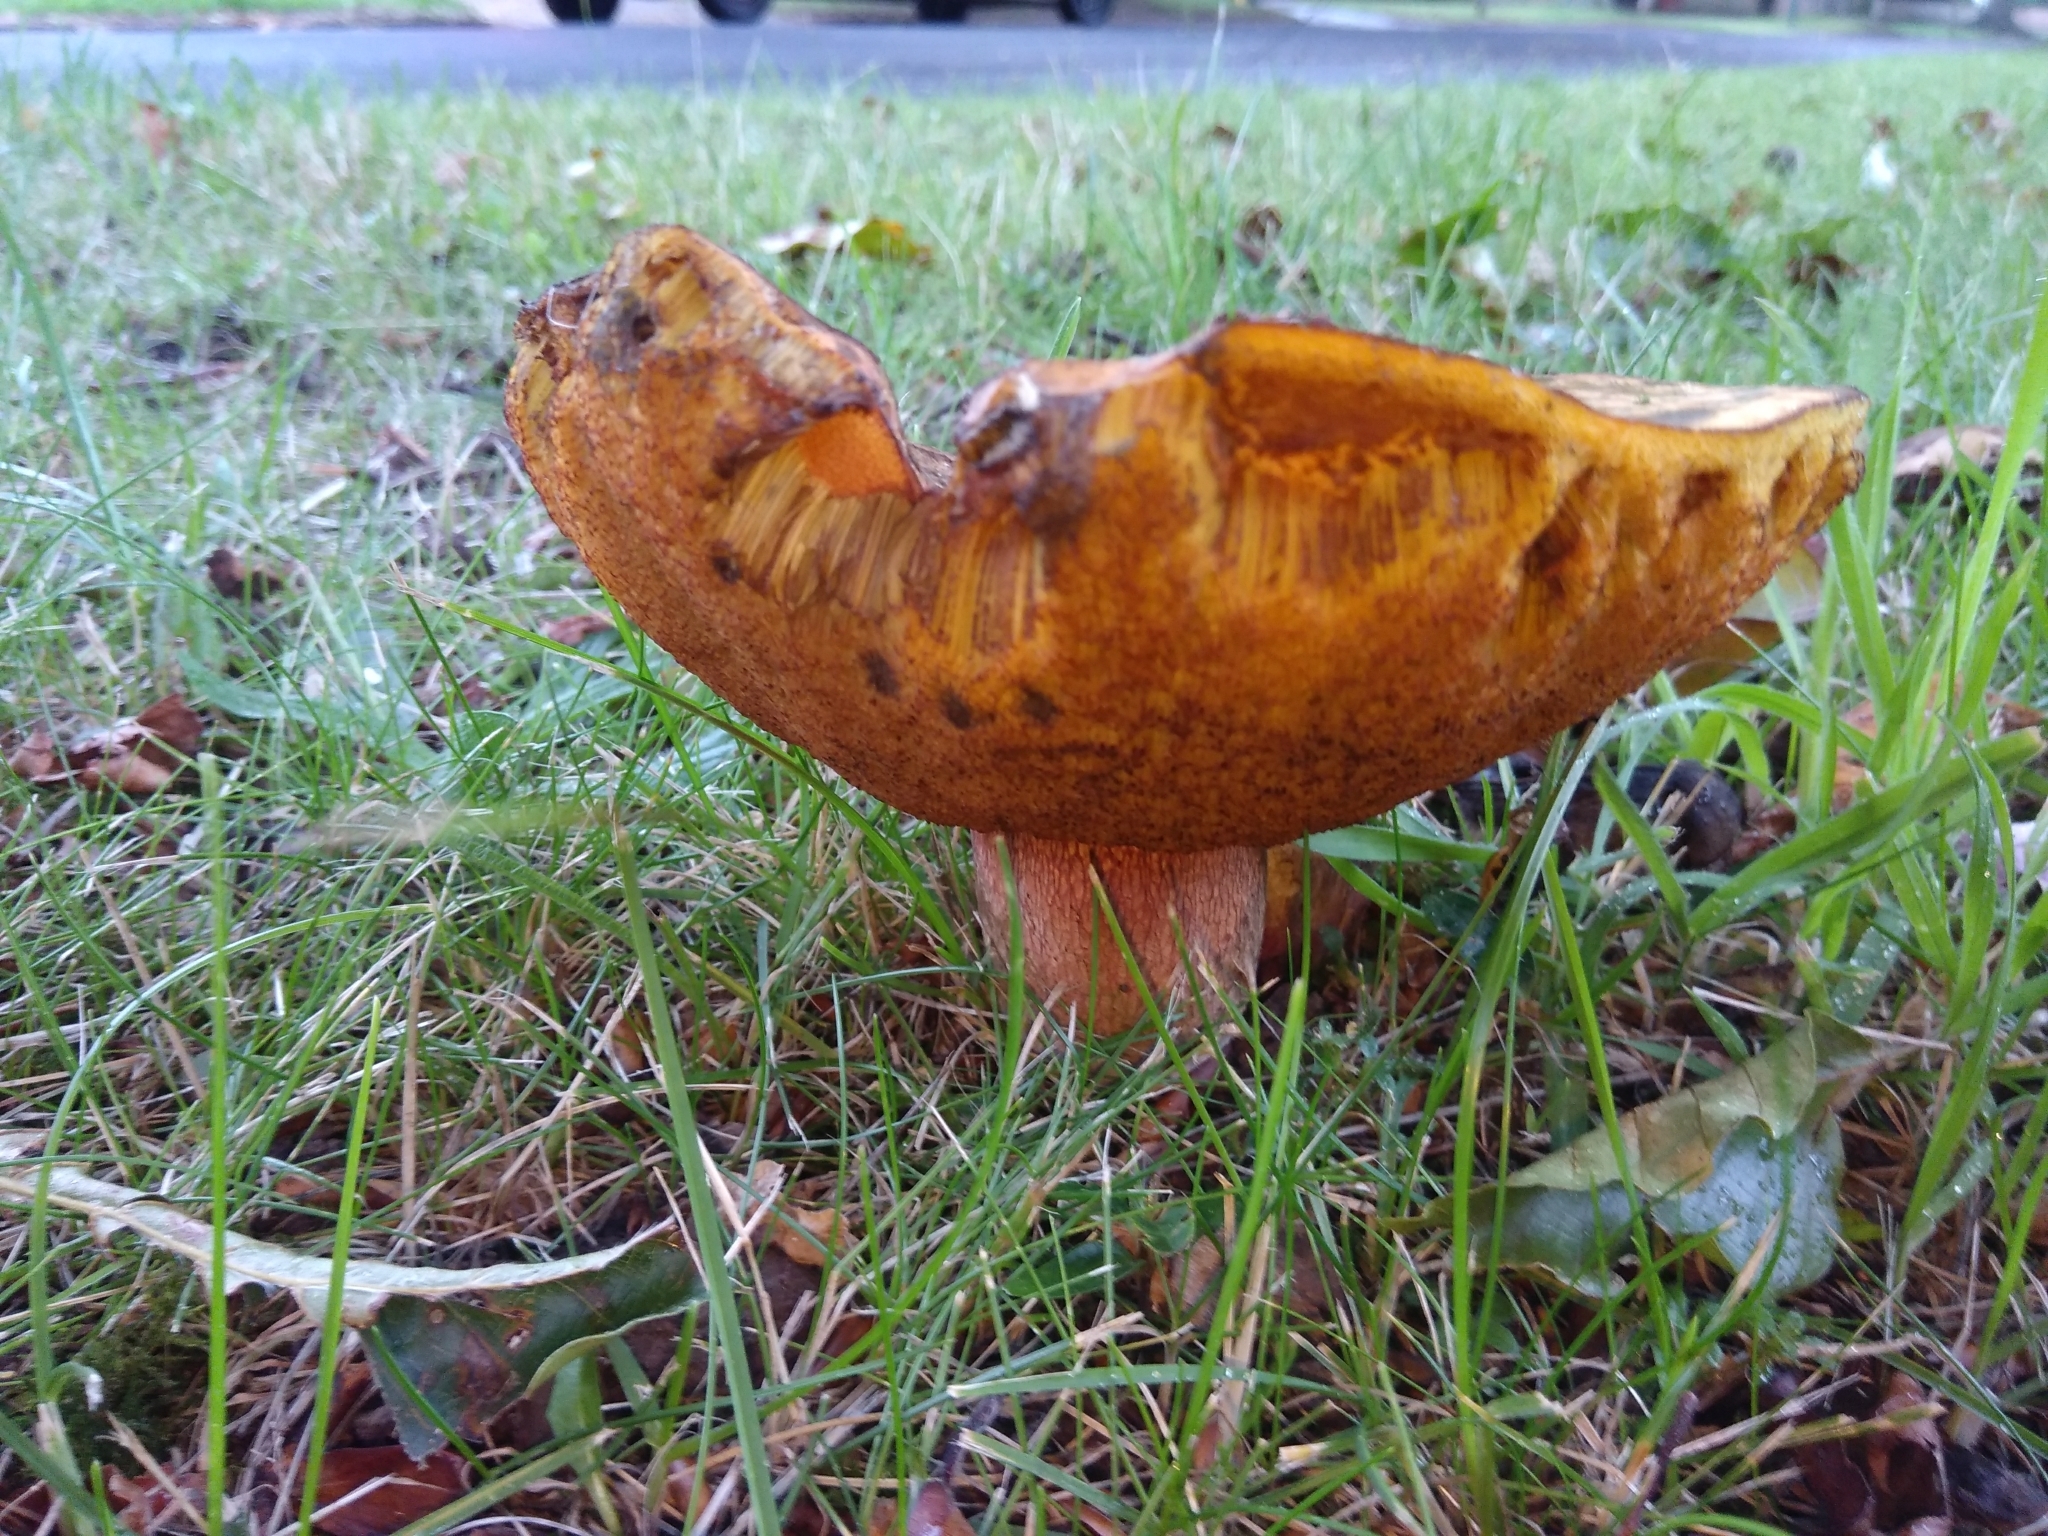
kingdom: Fungi
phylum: Basidiomycota
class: Agaricomycetes
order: Boletales
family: Boletaceae
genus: Suillellus
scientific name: Suillellus luridus
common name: Lurid bolete
